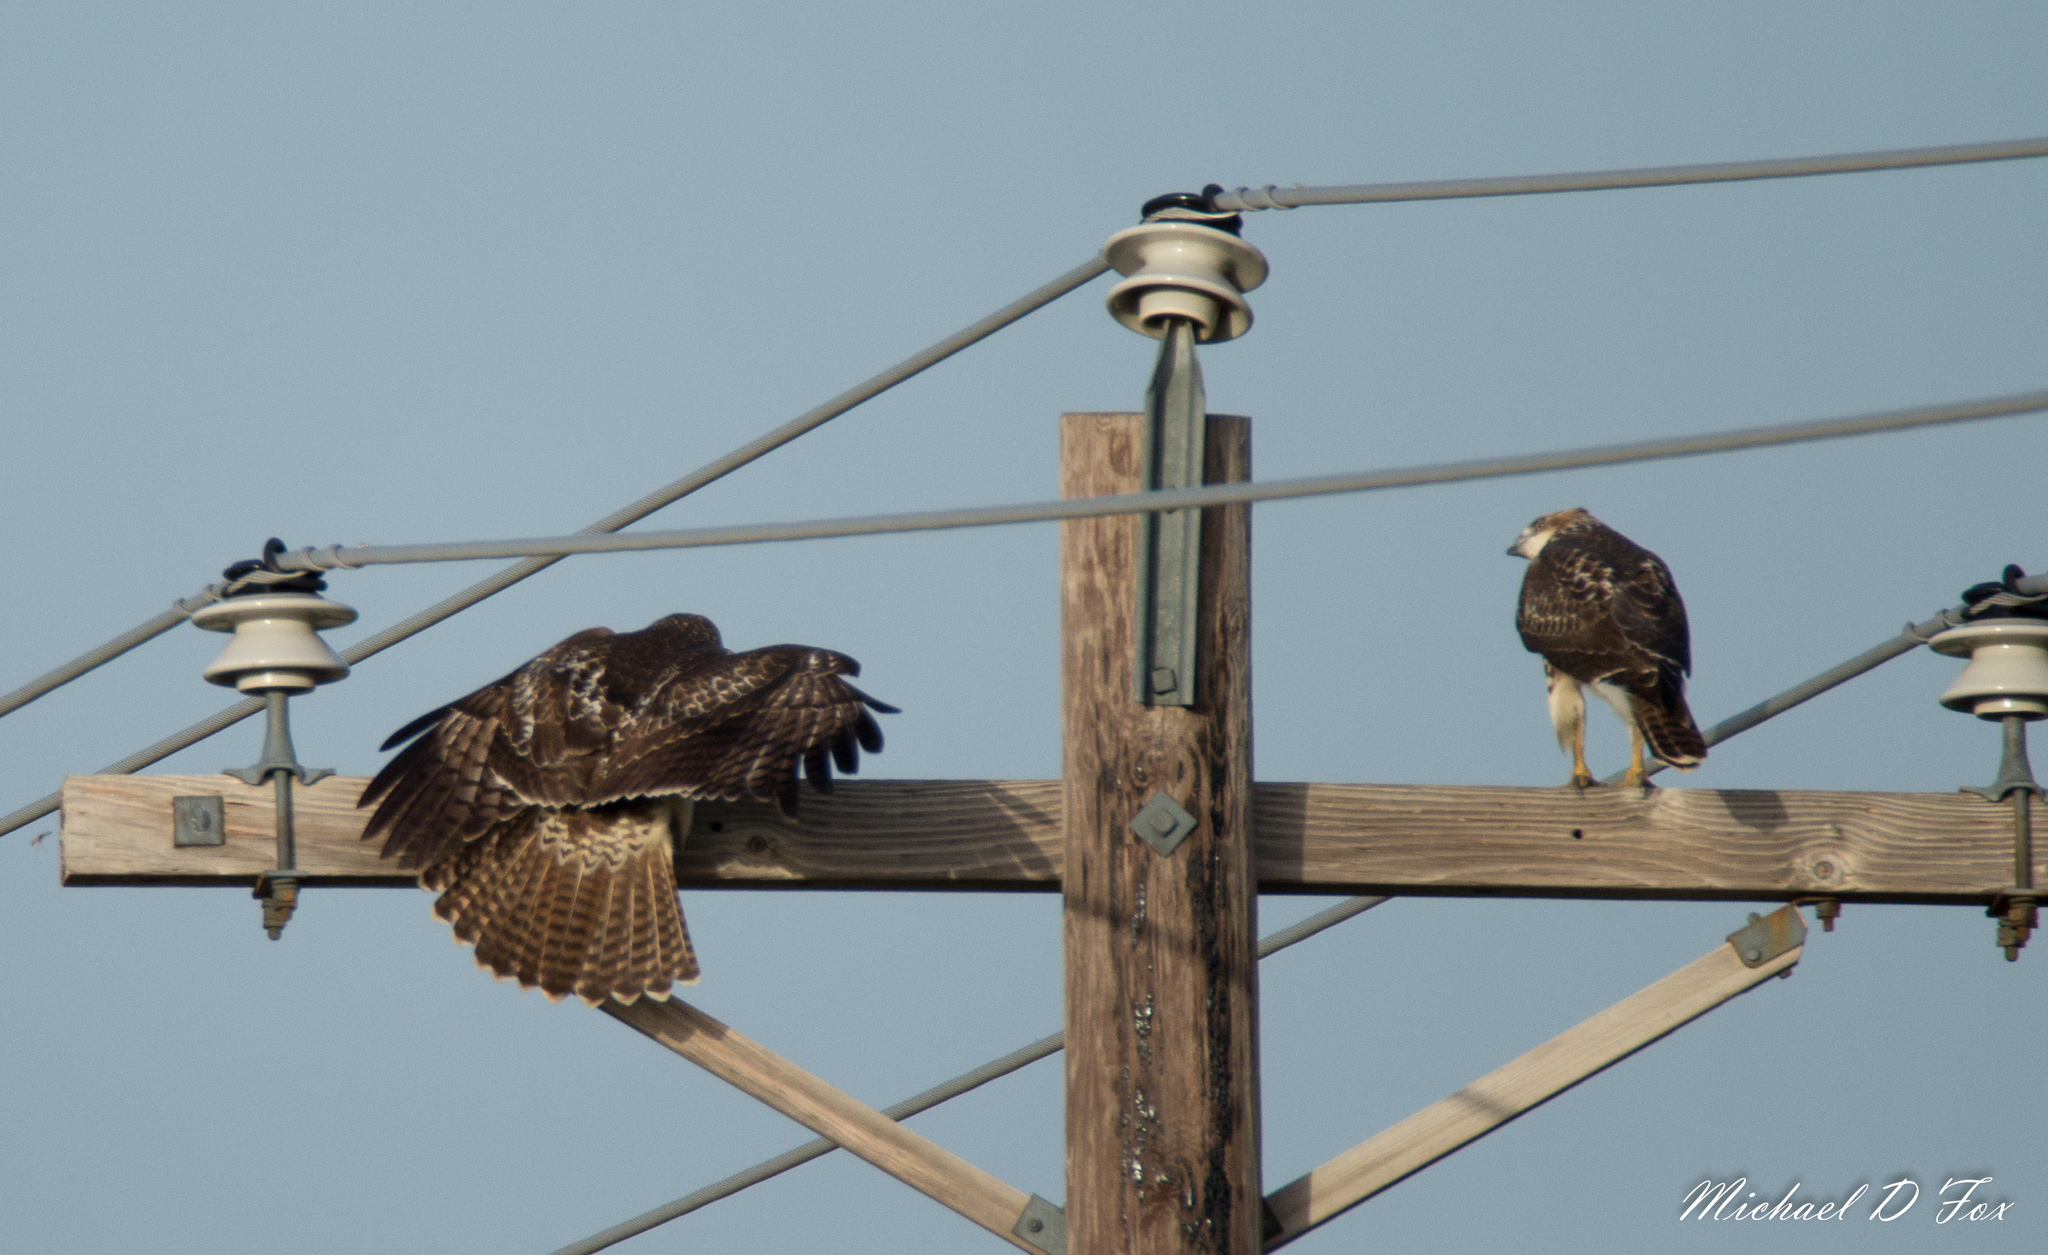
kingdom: Animalia
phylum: Chordata
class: Aves
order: Accipitriformes
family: Accipitridae
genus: Buteo
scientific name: Buteo jamaicensis
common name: Red-tailed hawk
